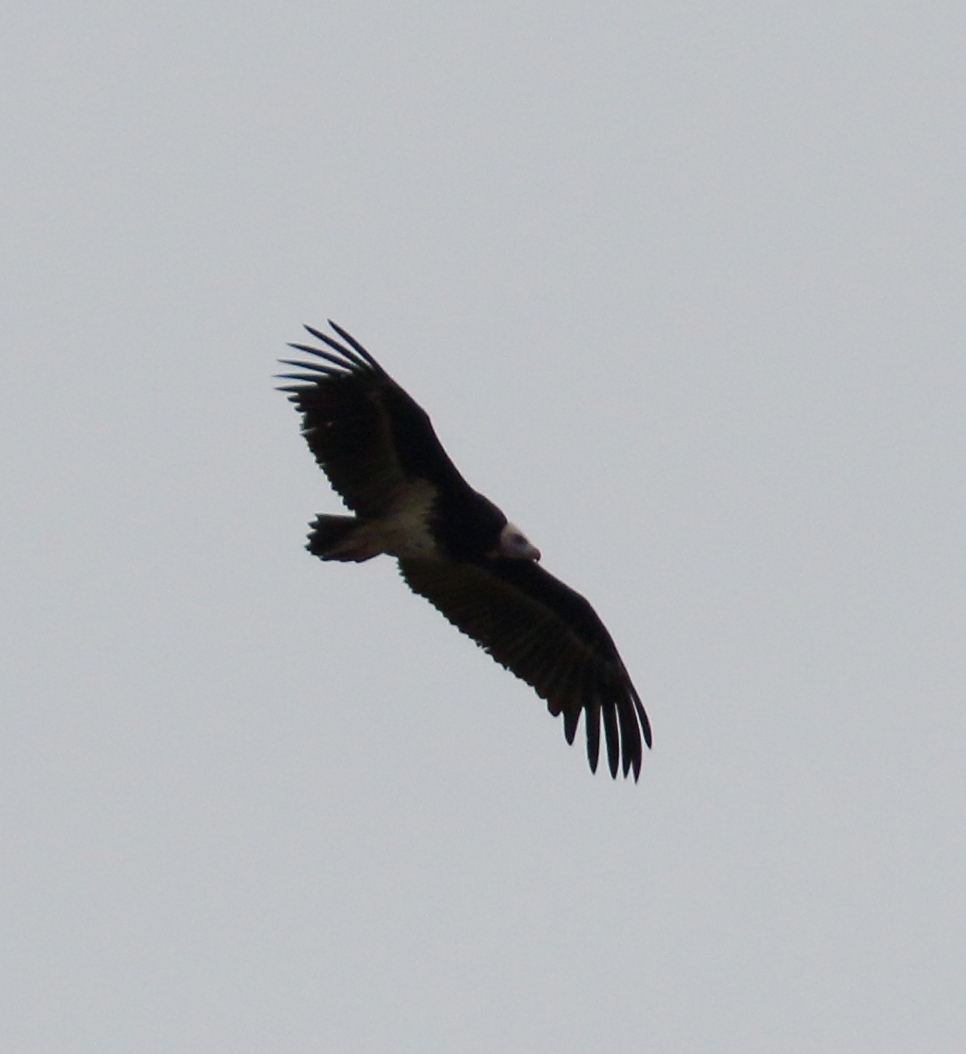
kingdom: Animalia
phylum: Chordata
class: Aves
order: Accipitriformes
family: Accipitridae
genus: Trigonoceps
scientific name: Trigonoceps occipitalis
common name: White-headed vulture
